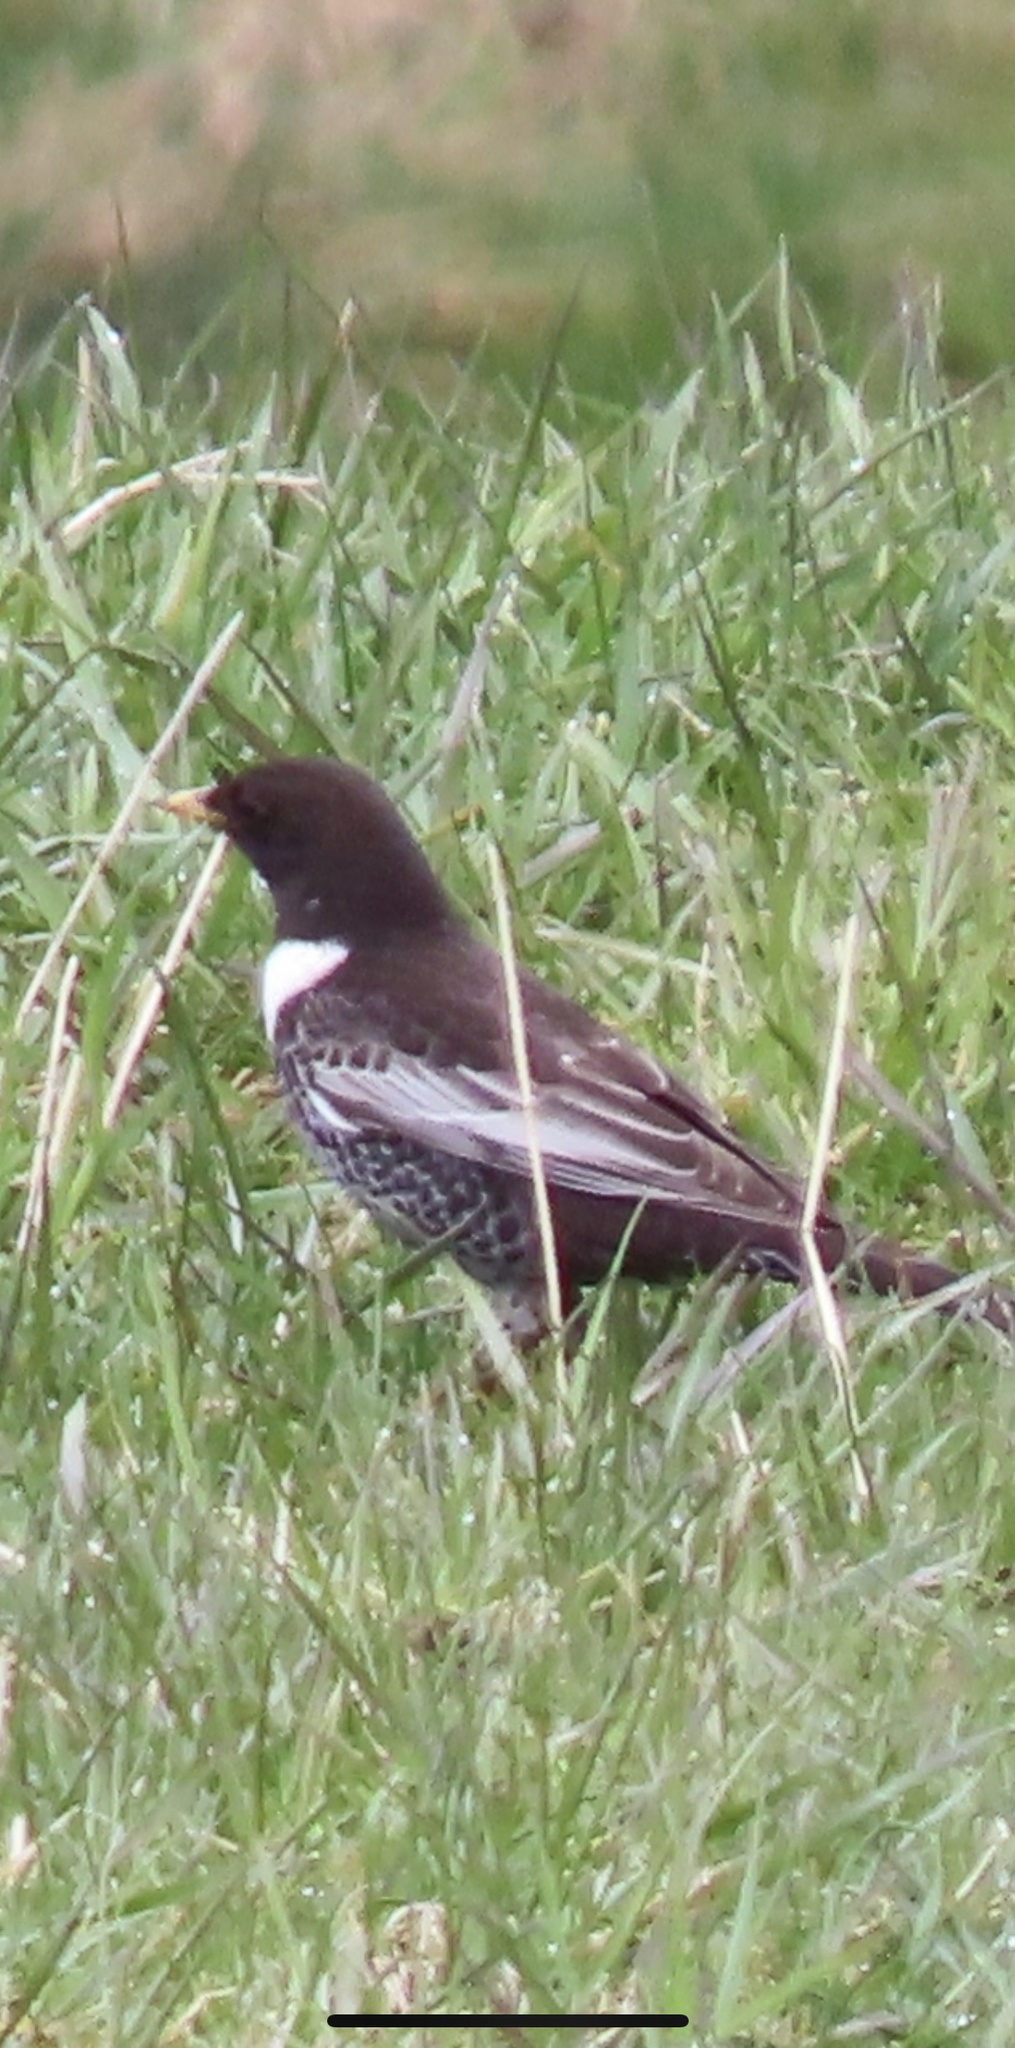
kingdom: Animalia
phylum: Chordata
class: Aves
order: Passeriformes
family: Turdidae
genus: Turdus
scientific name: Turdus torquatus
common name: Ring ouzel
